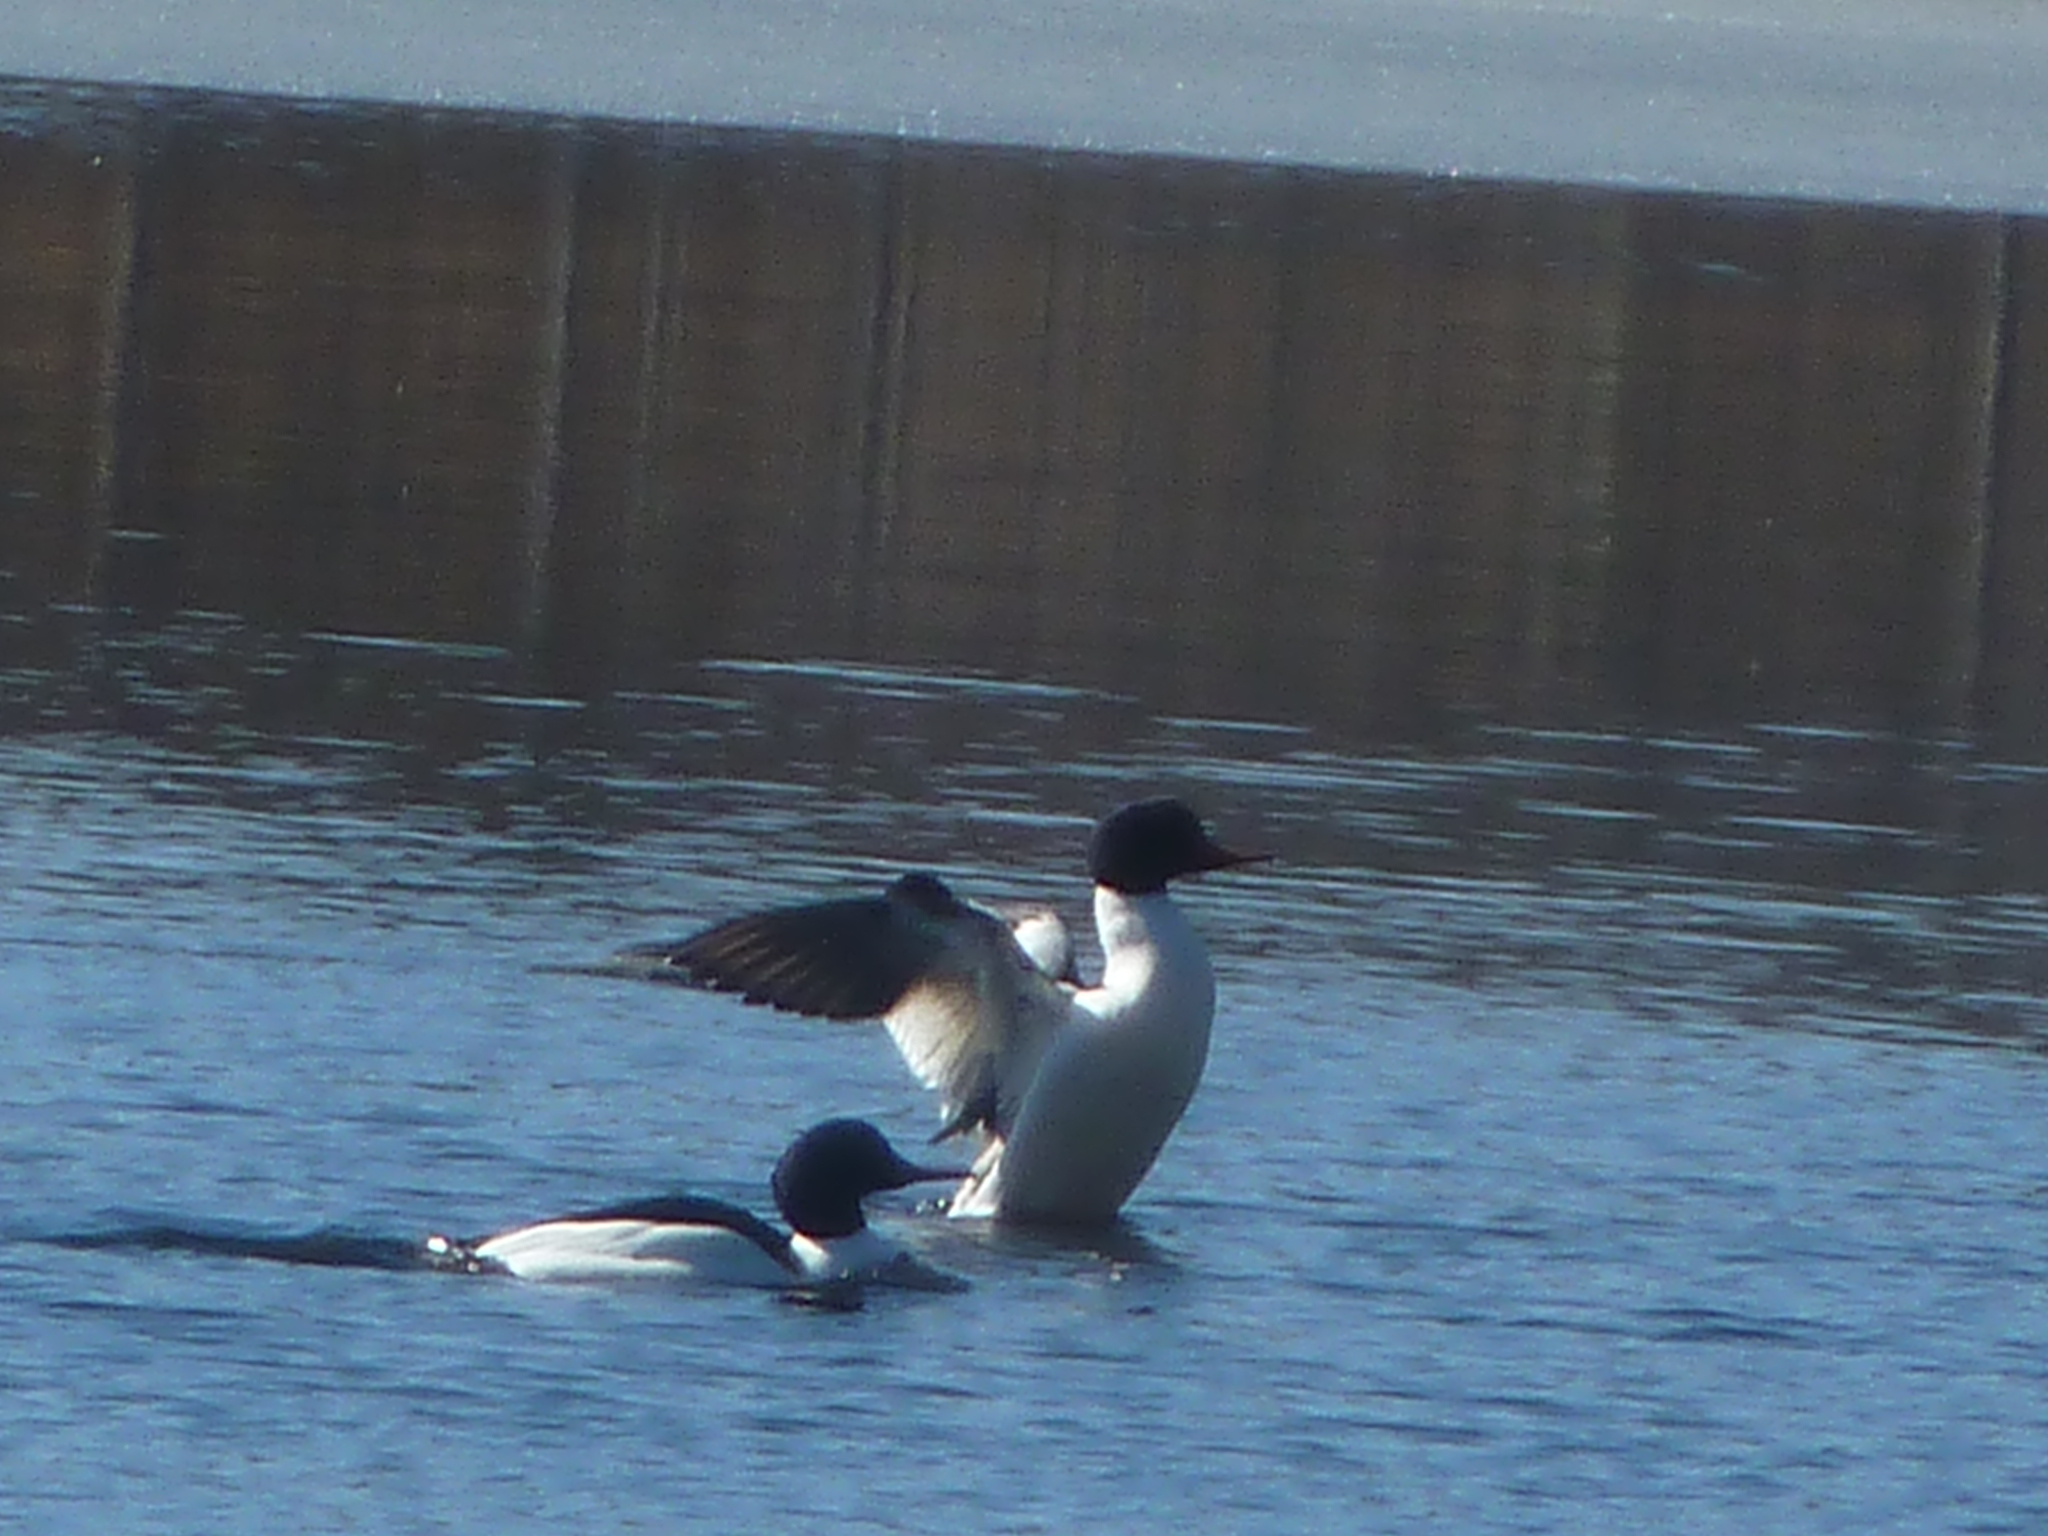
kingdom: Animalia
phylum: Chordata
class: Aves
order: Anseriformes
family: Anatidae
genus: Mergus
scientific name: Mergus merganser
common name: Common merganser
